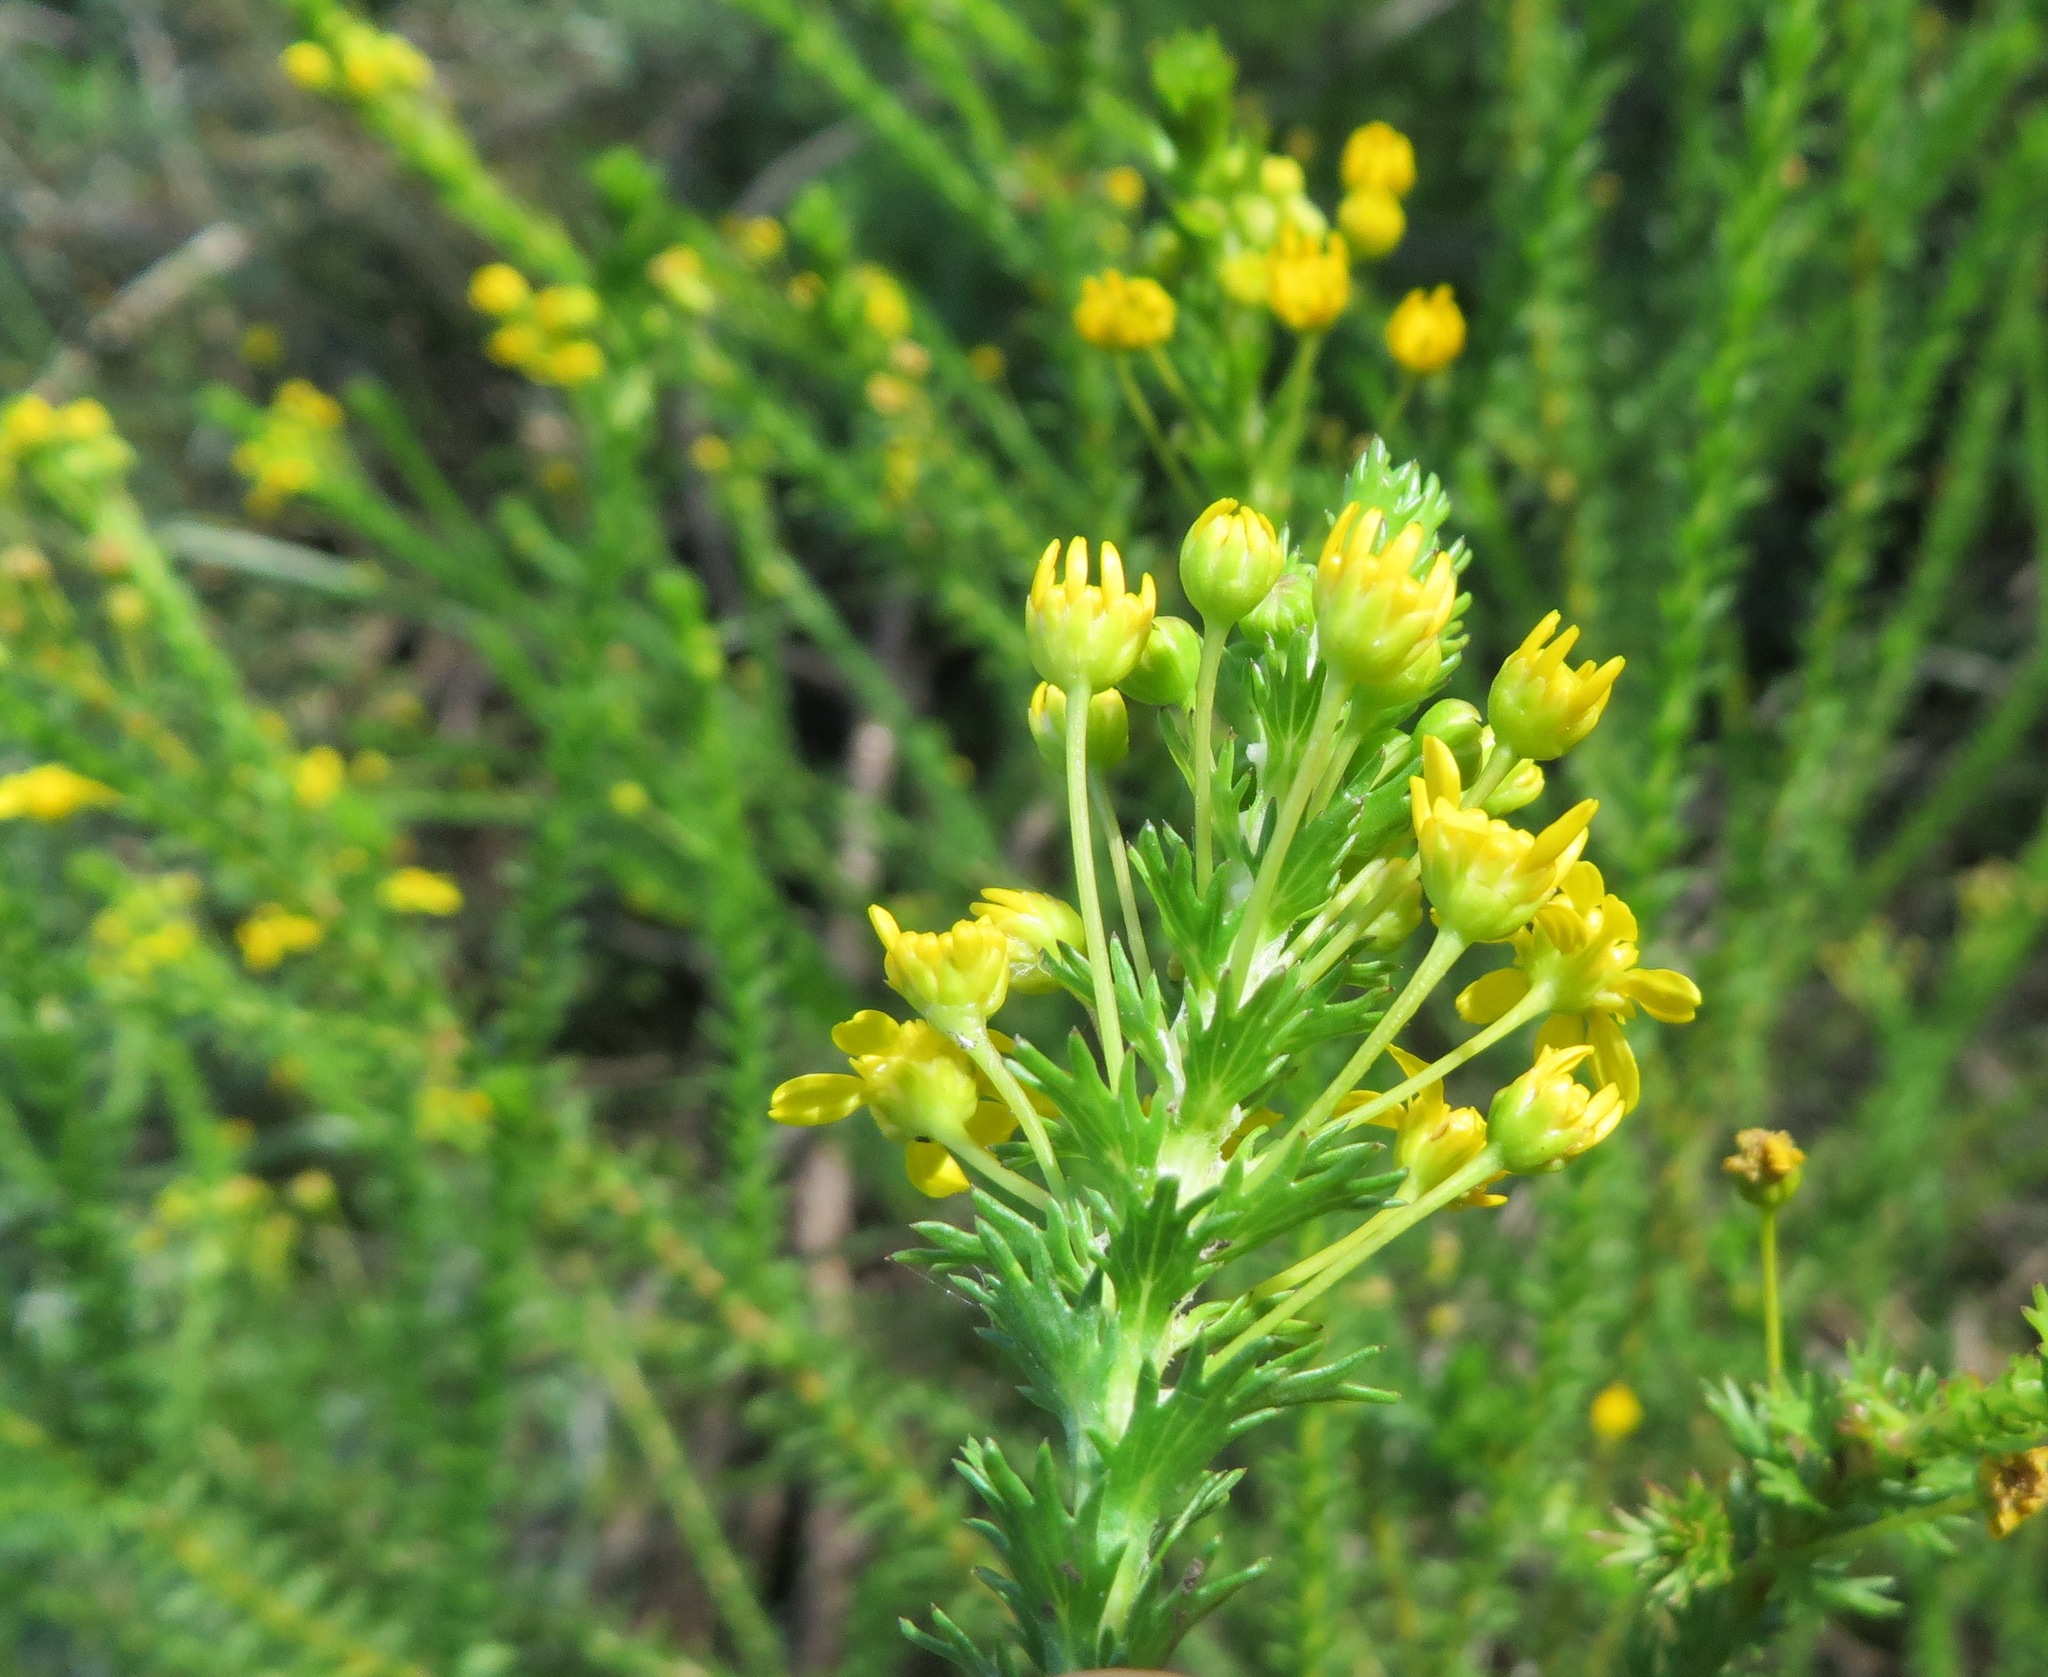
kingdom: Plantae
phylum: Tracheophyta
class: Magnoliopsida
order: Asterales
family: Asteraceae
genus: Euryops
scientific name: Euryops virgineus
